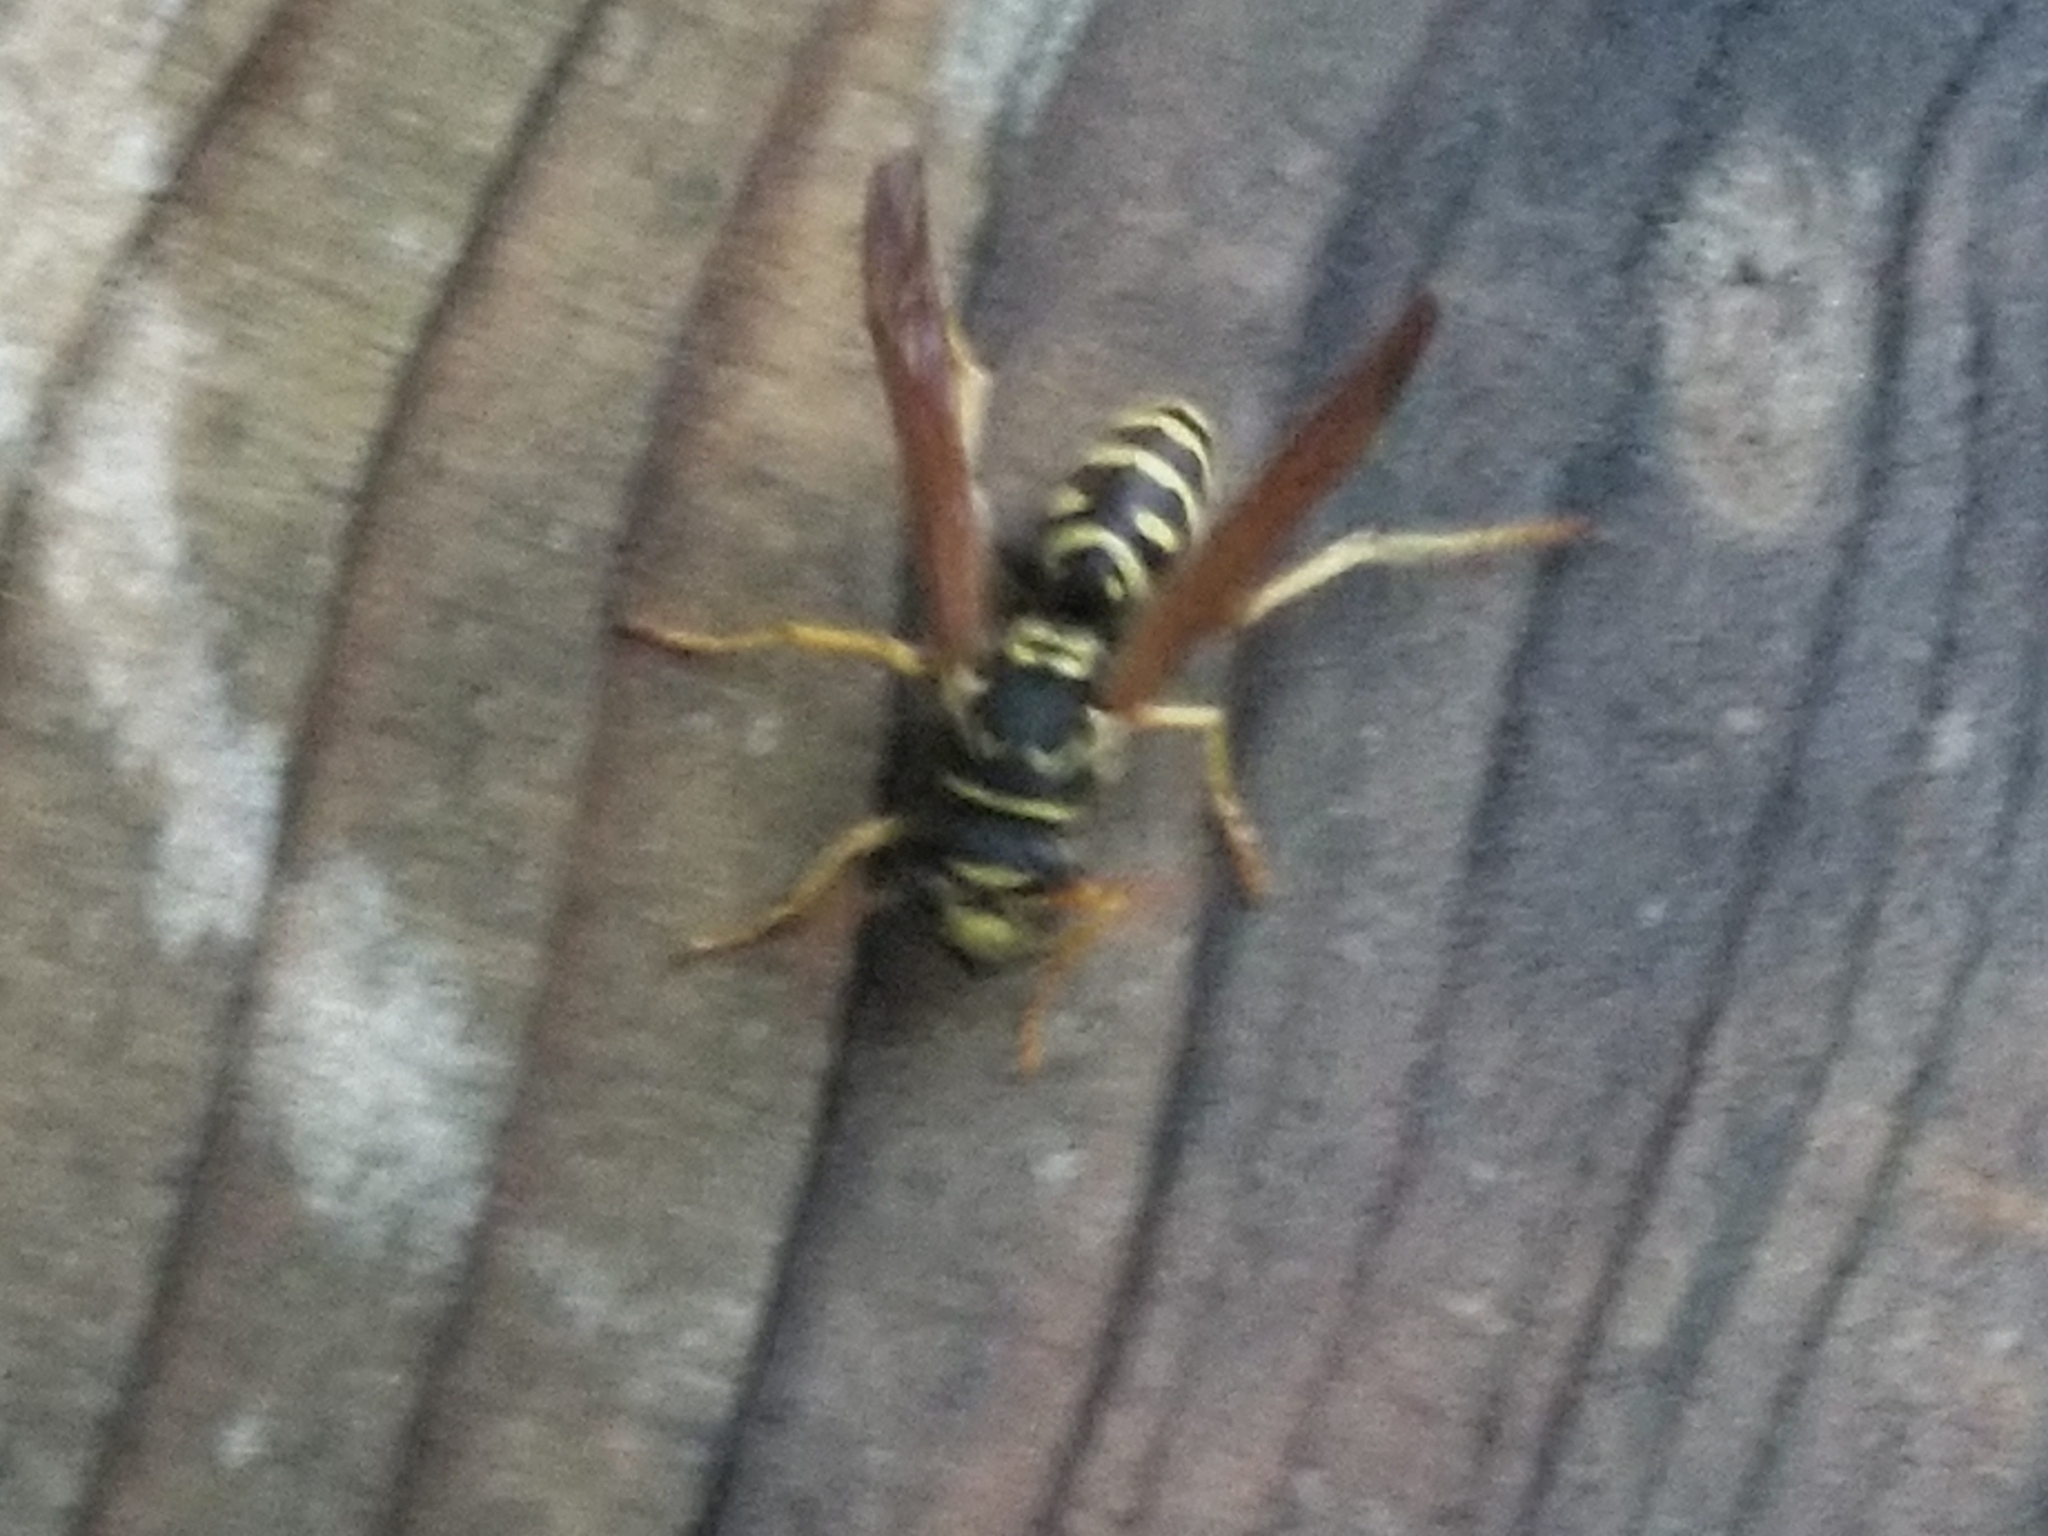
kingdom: Animalia
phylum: Arthropoda
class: Insecta
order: Hymenoptera
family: Eumenidae
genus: Polistes
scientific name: Polistes dominula
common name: Paper wasp
